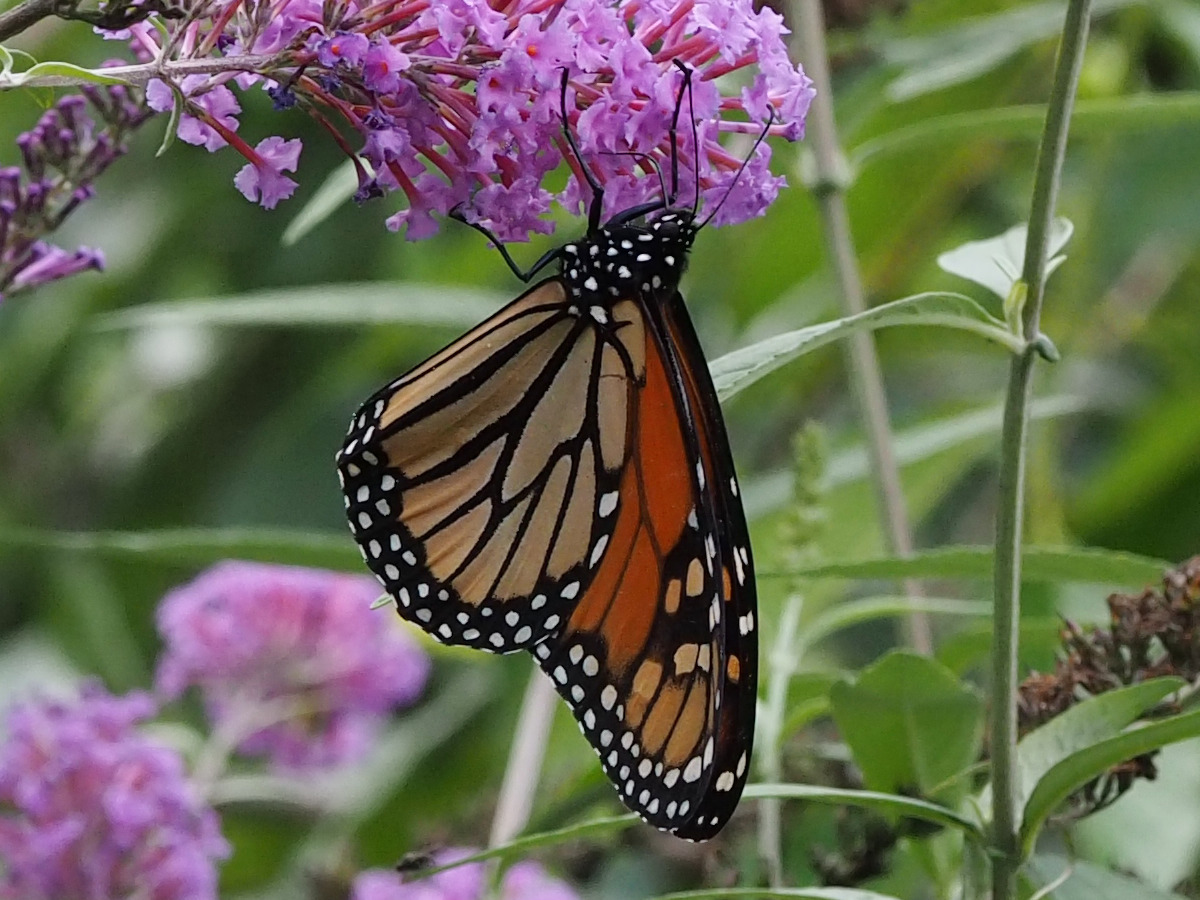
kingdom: Animalia
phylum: Arthropoda
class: Insecta
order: Lepidoptera
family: Nymphalidae
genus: Danaus
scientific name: Danaus plexippus
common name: Monarch
